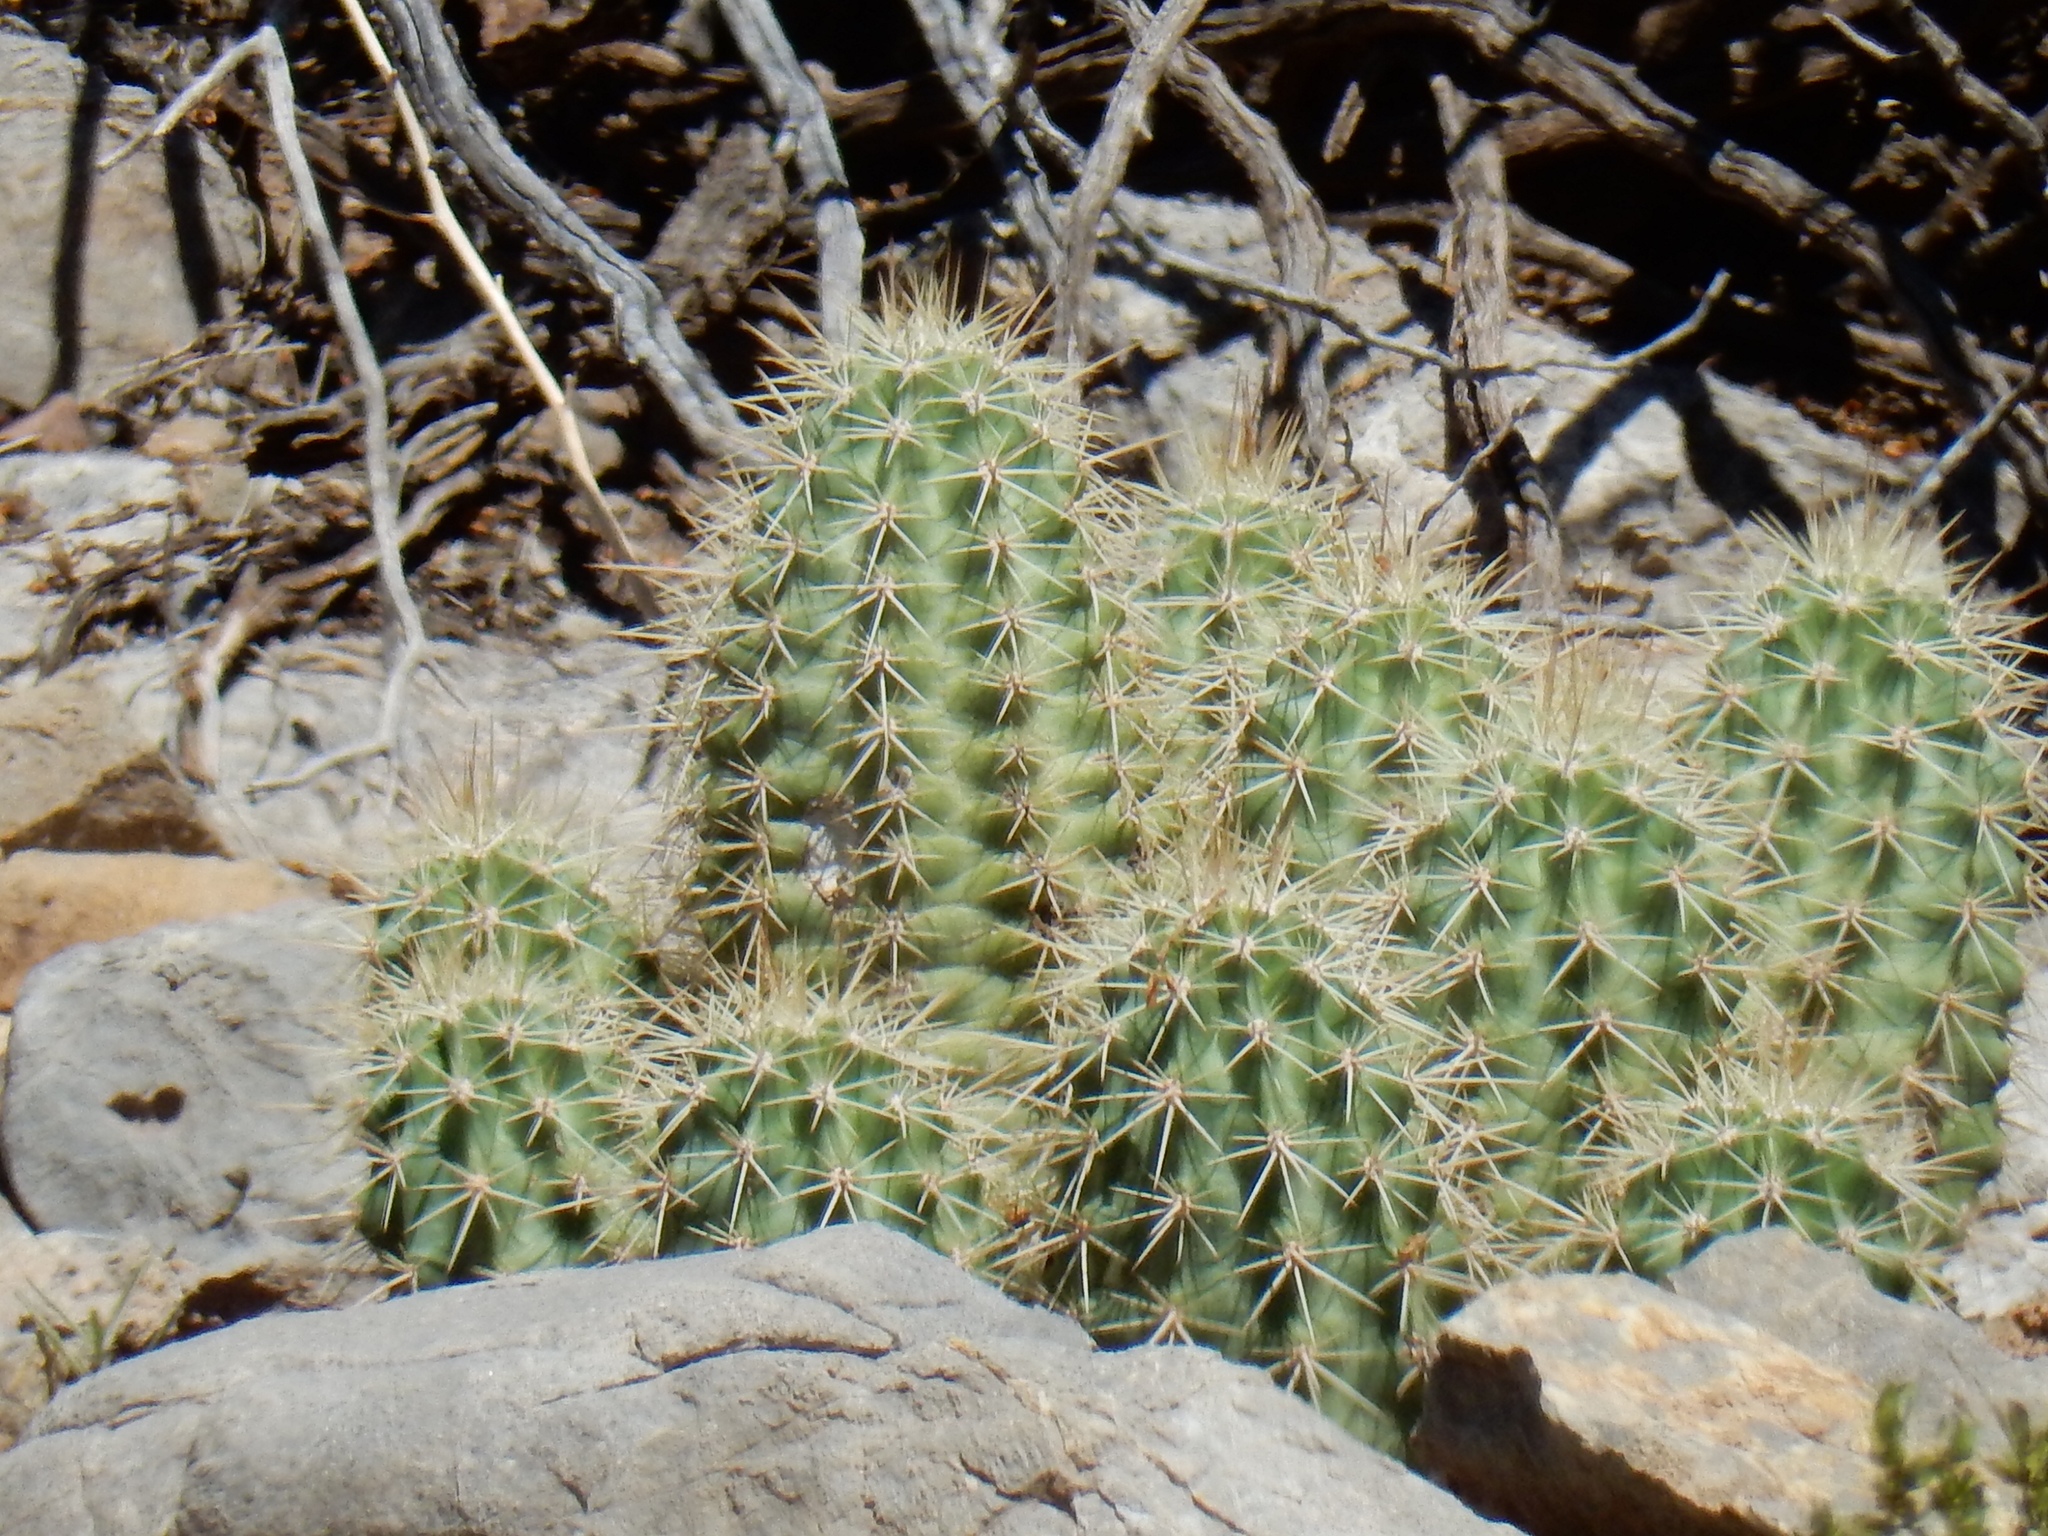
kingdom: Plantae
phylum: Tracheophyta
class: Magnoliopsida
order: Caryophyllales
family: Cactaceae
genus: Echinocereus
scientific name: Echinocereus coccineus
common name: Scarlet hedgehog cactus
